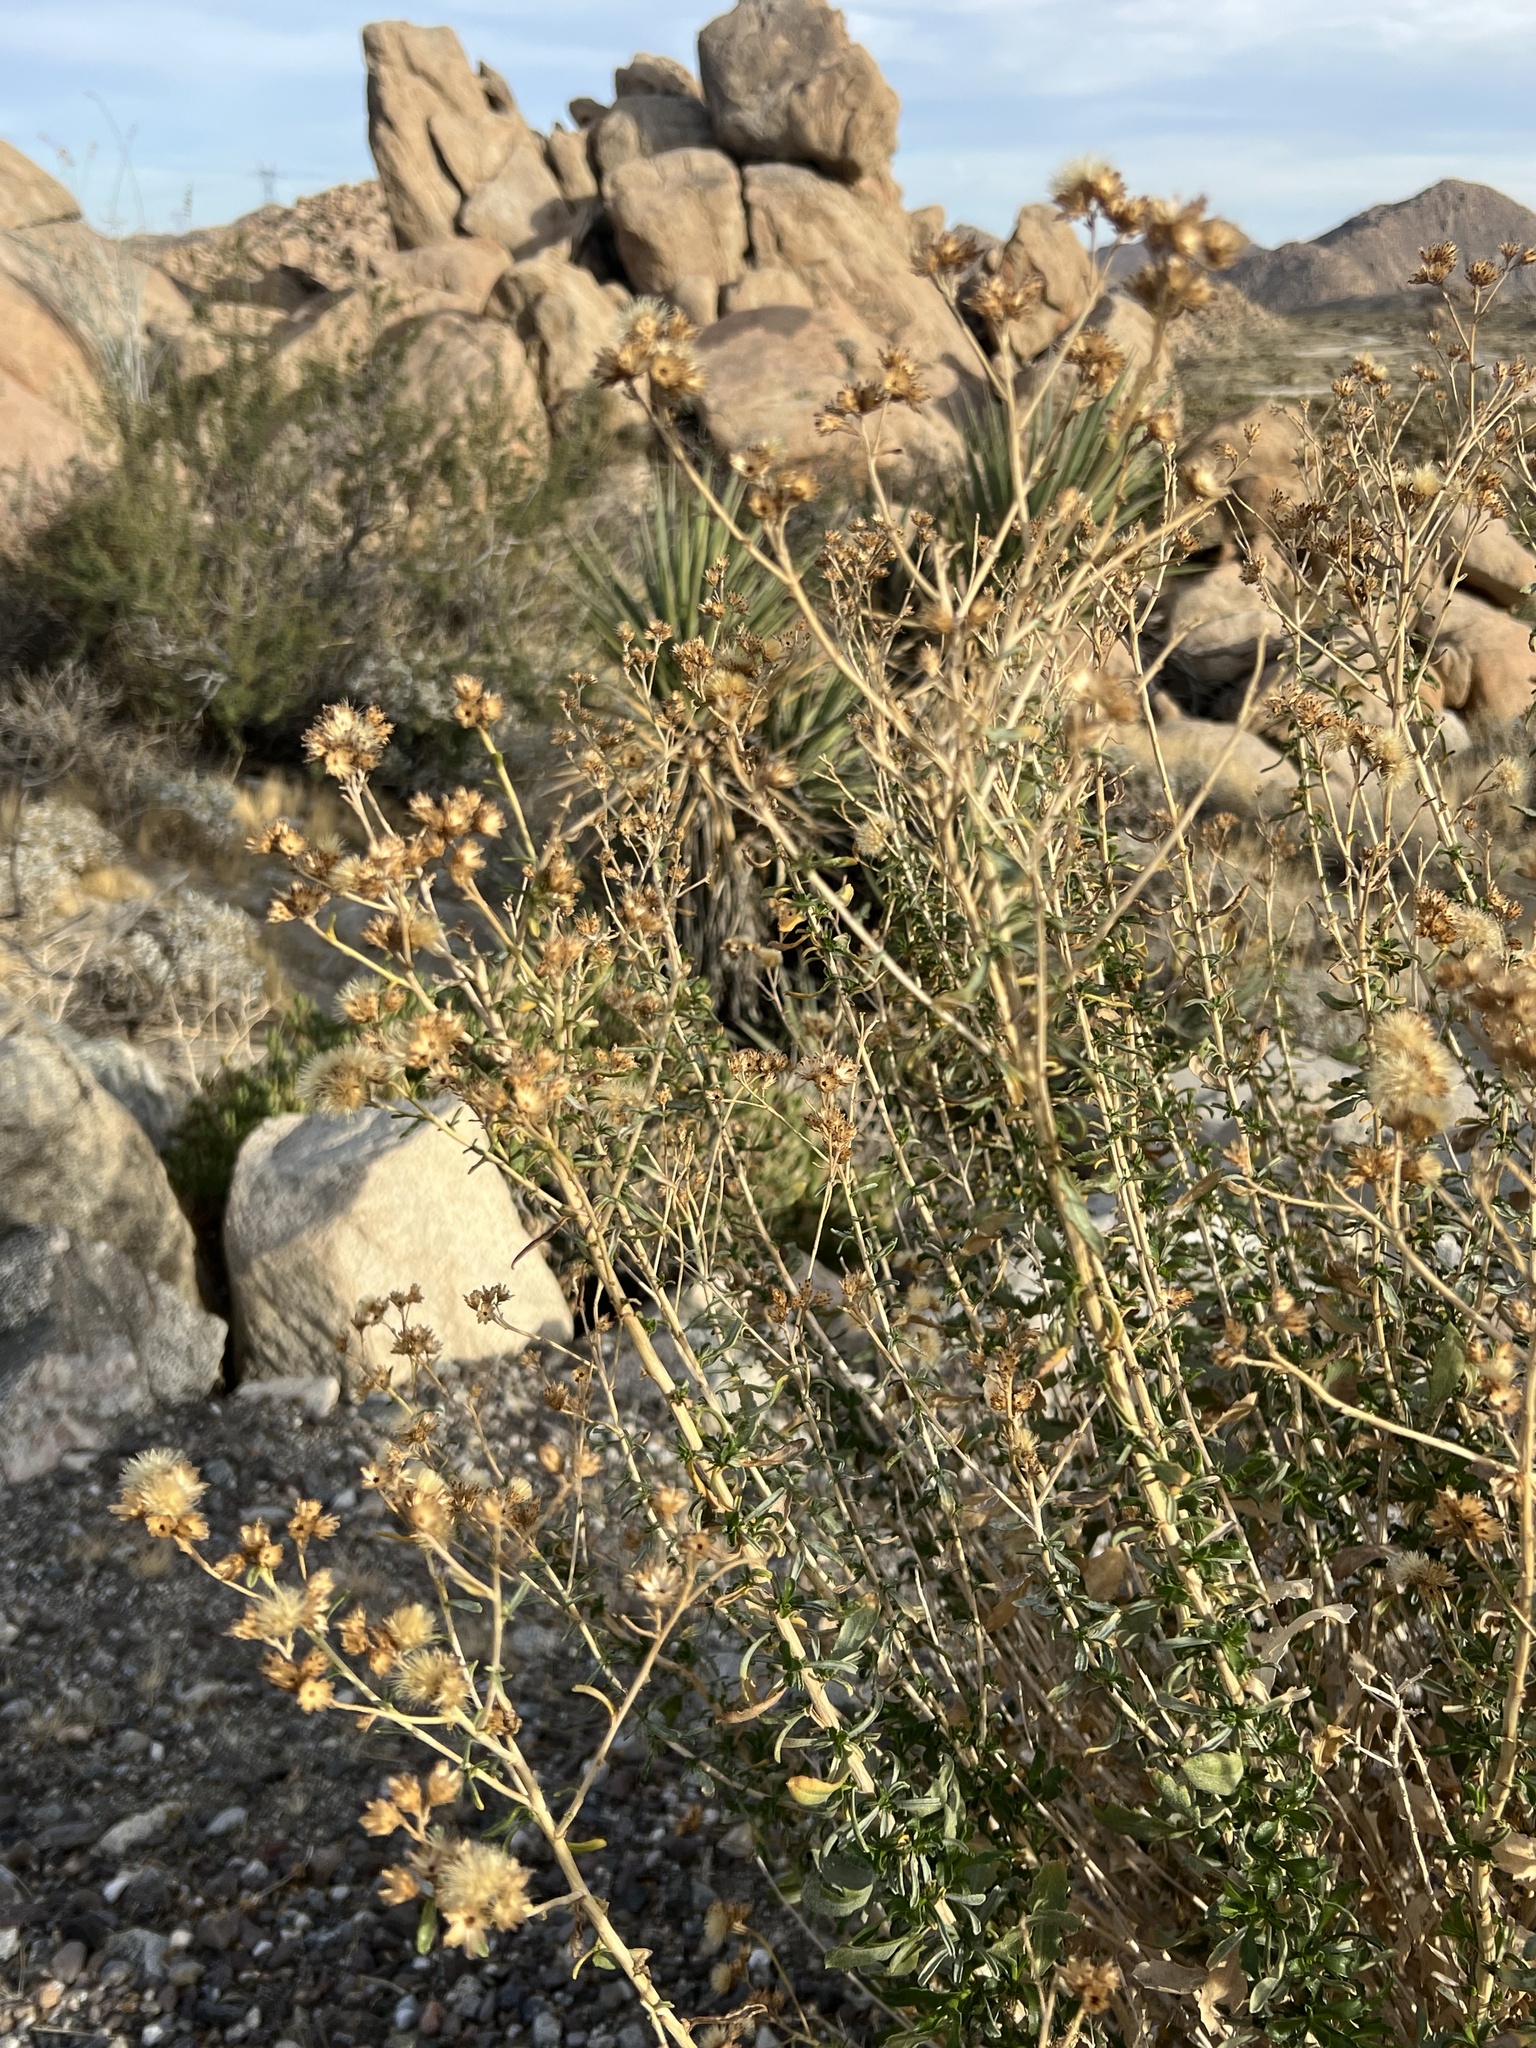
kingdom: Plantae
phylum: Tracheophyta
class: Magnoliopsida
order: Asterales
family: Asteraceae
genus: Isocoma
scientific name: Isocoma acradenia
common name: Alkali jimmyweed
